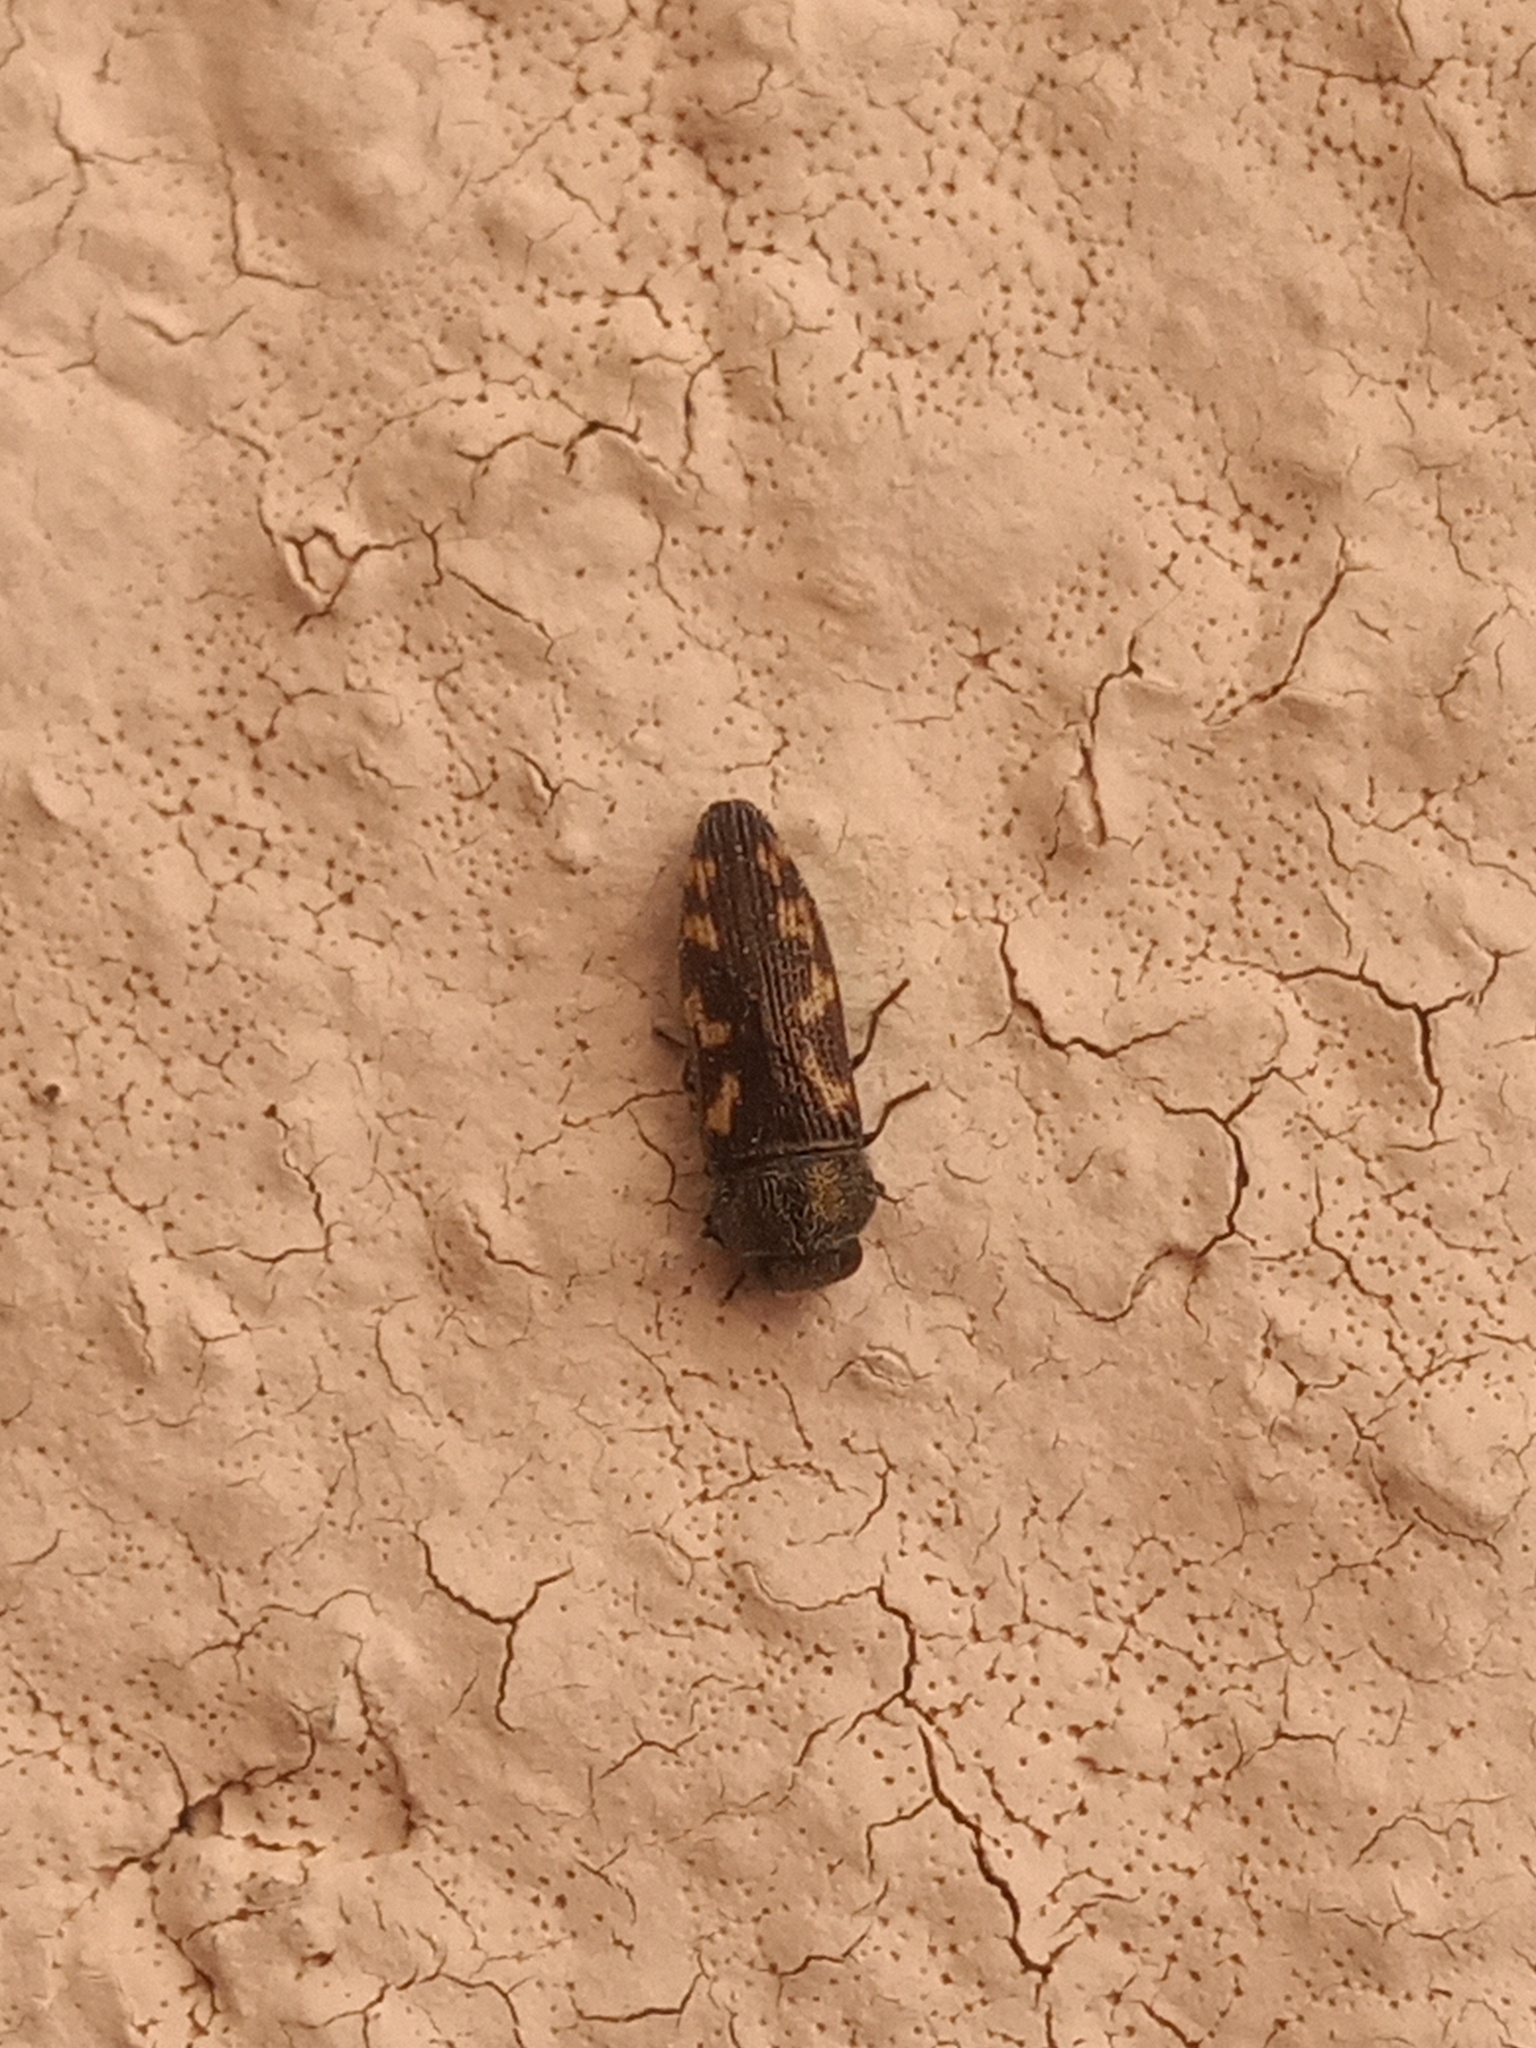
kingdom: Animalia
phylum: Arthropoda
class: Insecta
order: Coleoptera
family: Buprestidae
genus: Acmaeodera
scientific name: Acmaeodera neoneglecta
